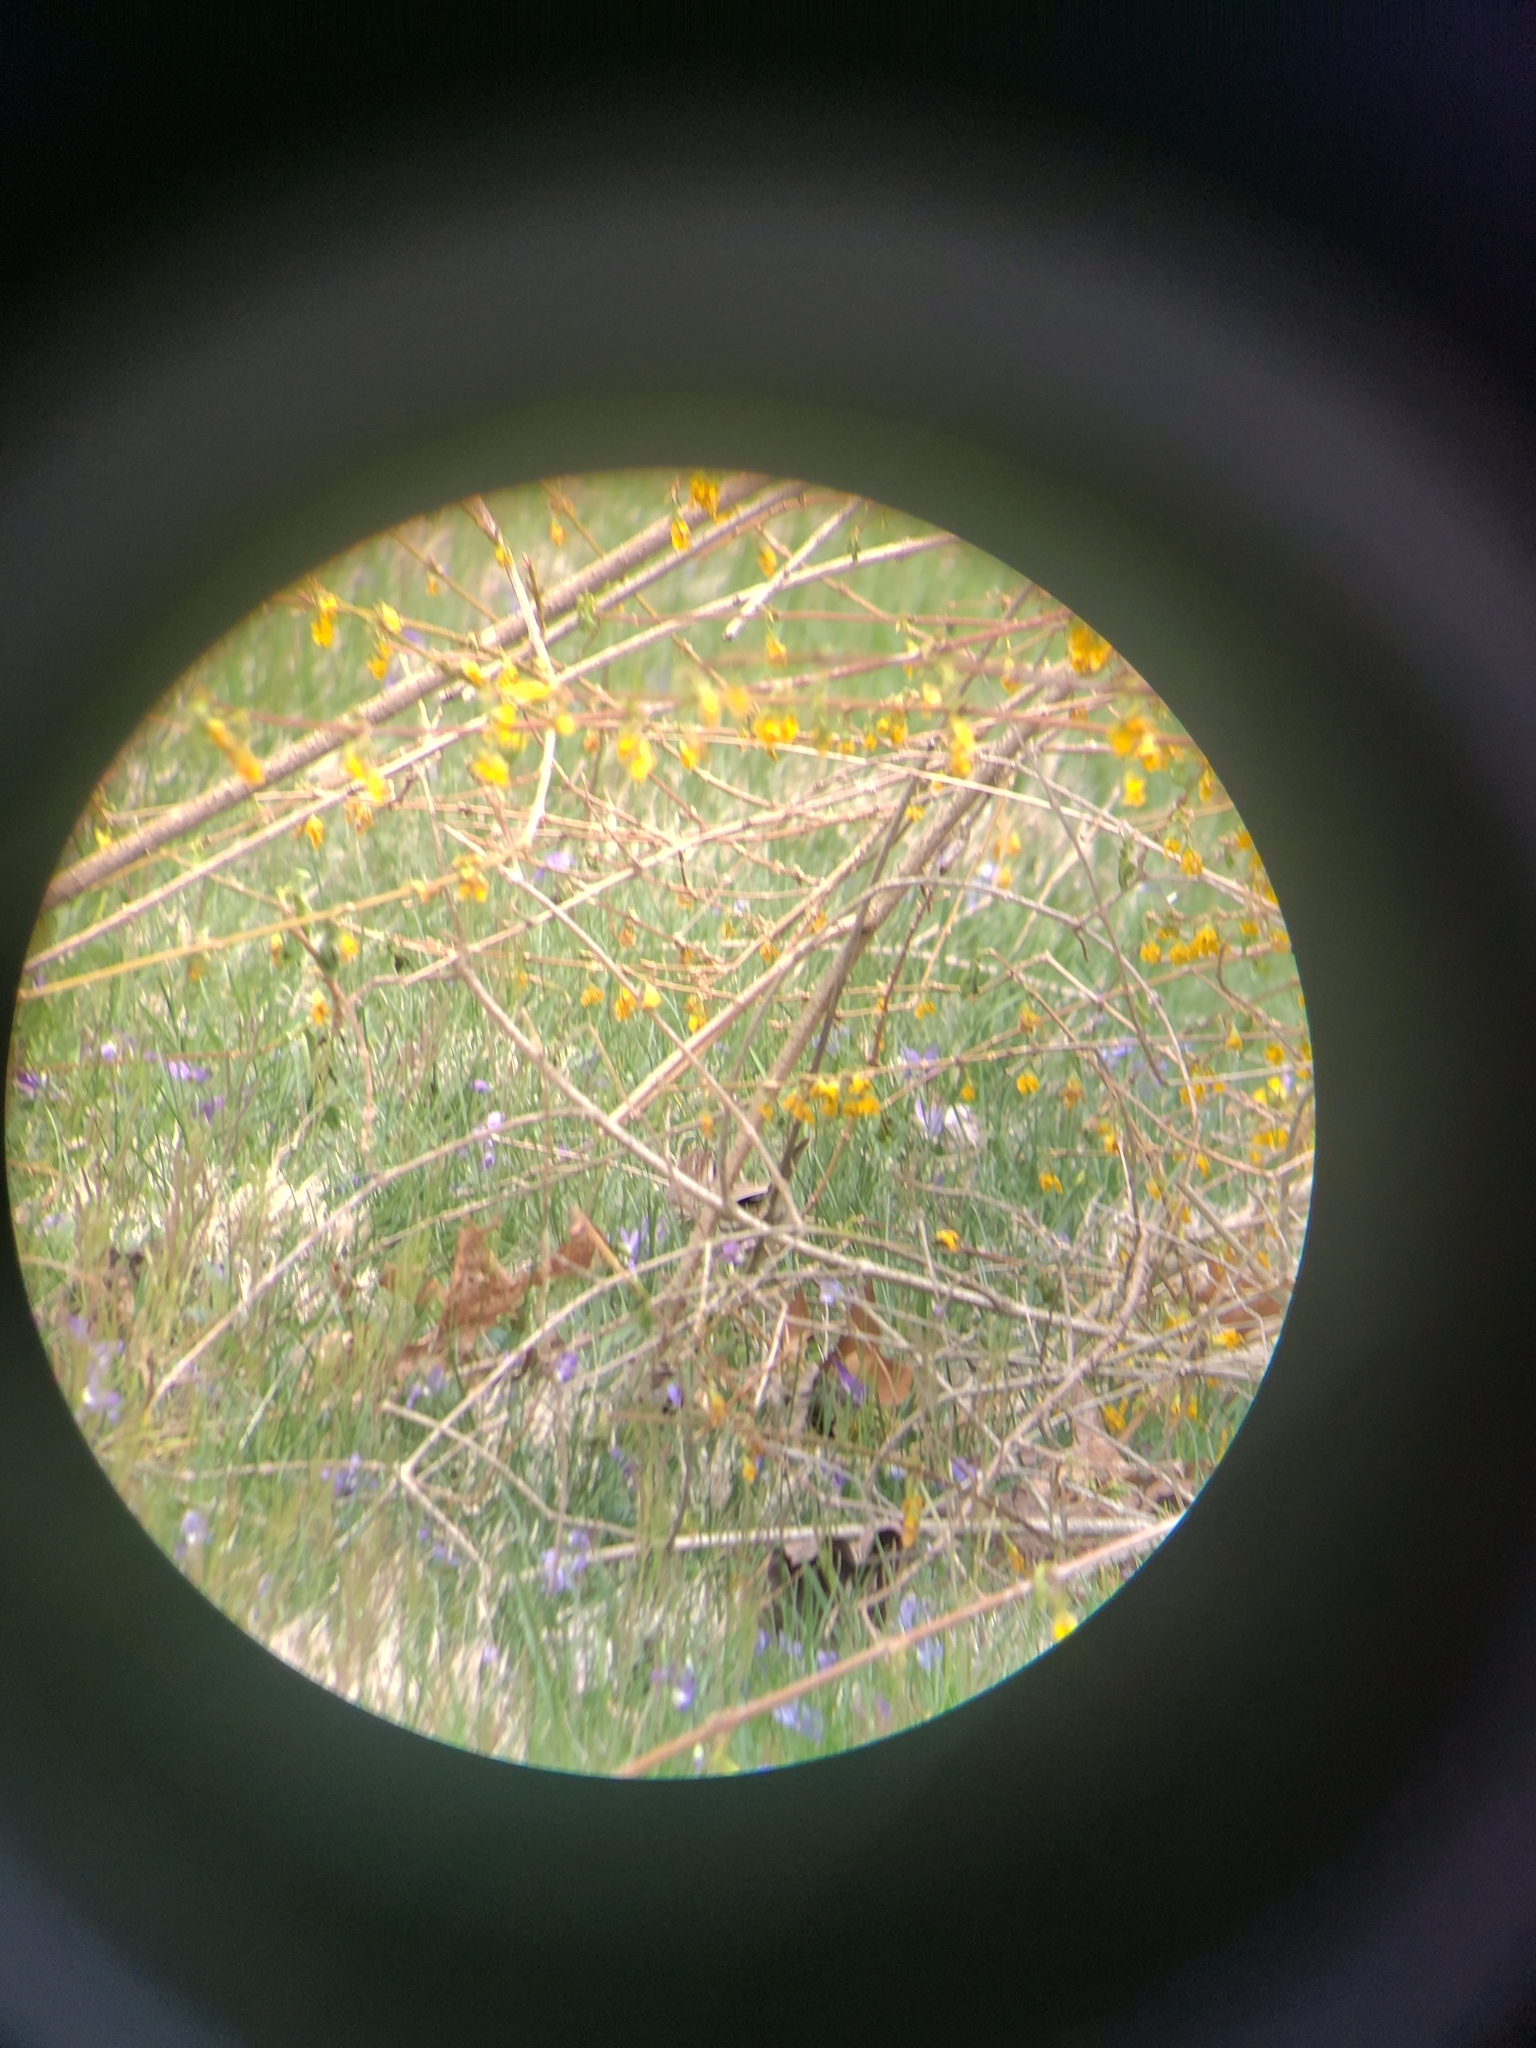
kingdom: Animalia
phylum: Chordata
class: Aves
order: Passeriformes
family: Passerellidae
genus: Melospiza
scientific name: Melospiza melodia
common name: Song sparrow
